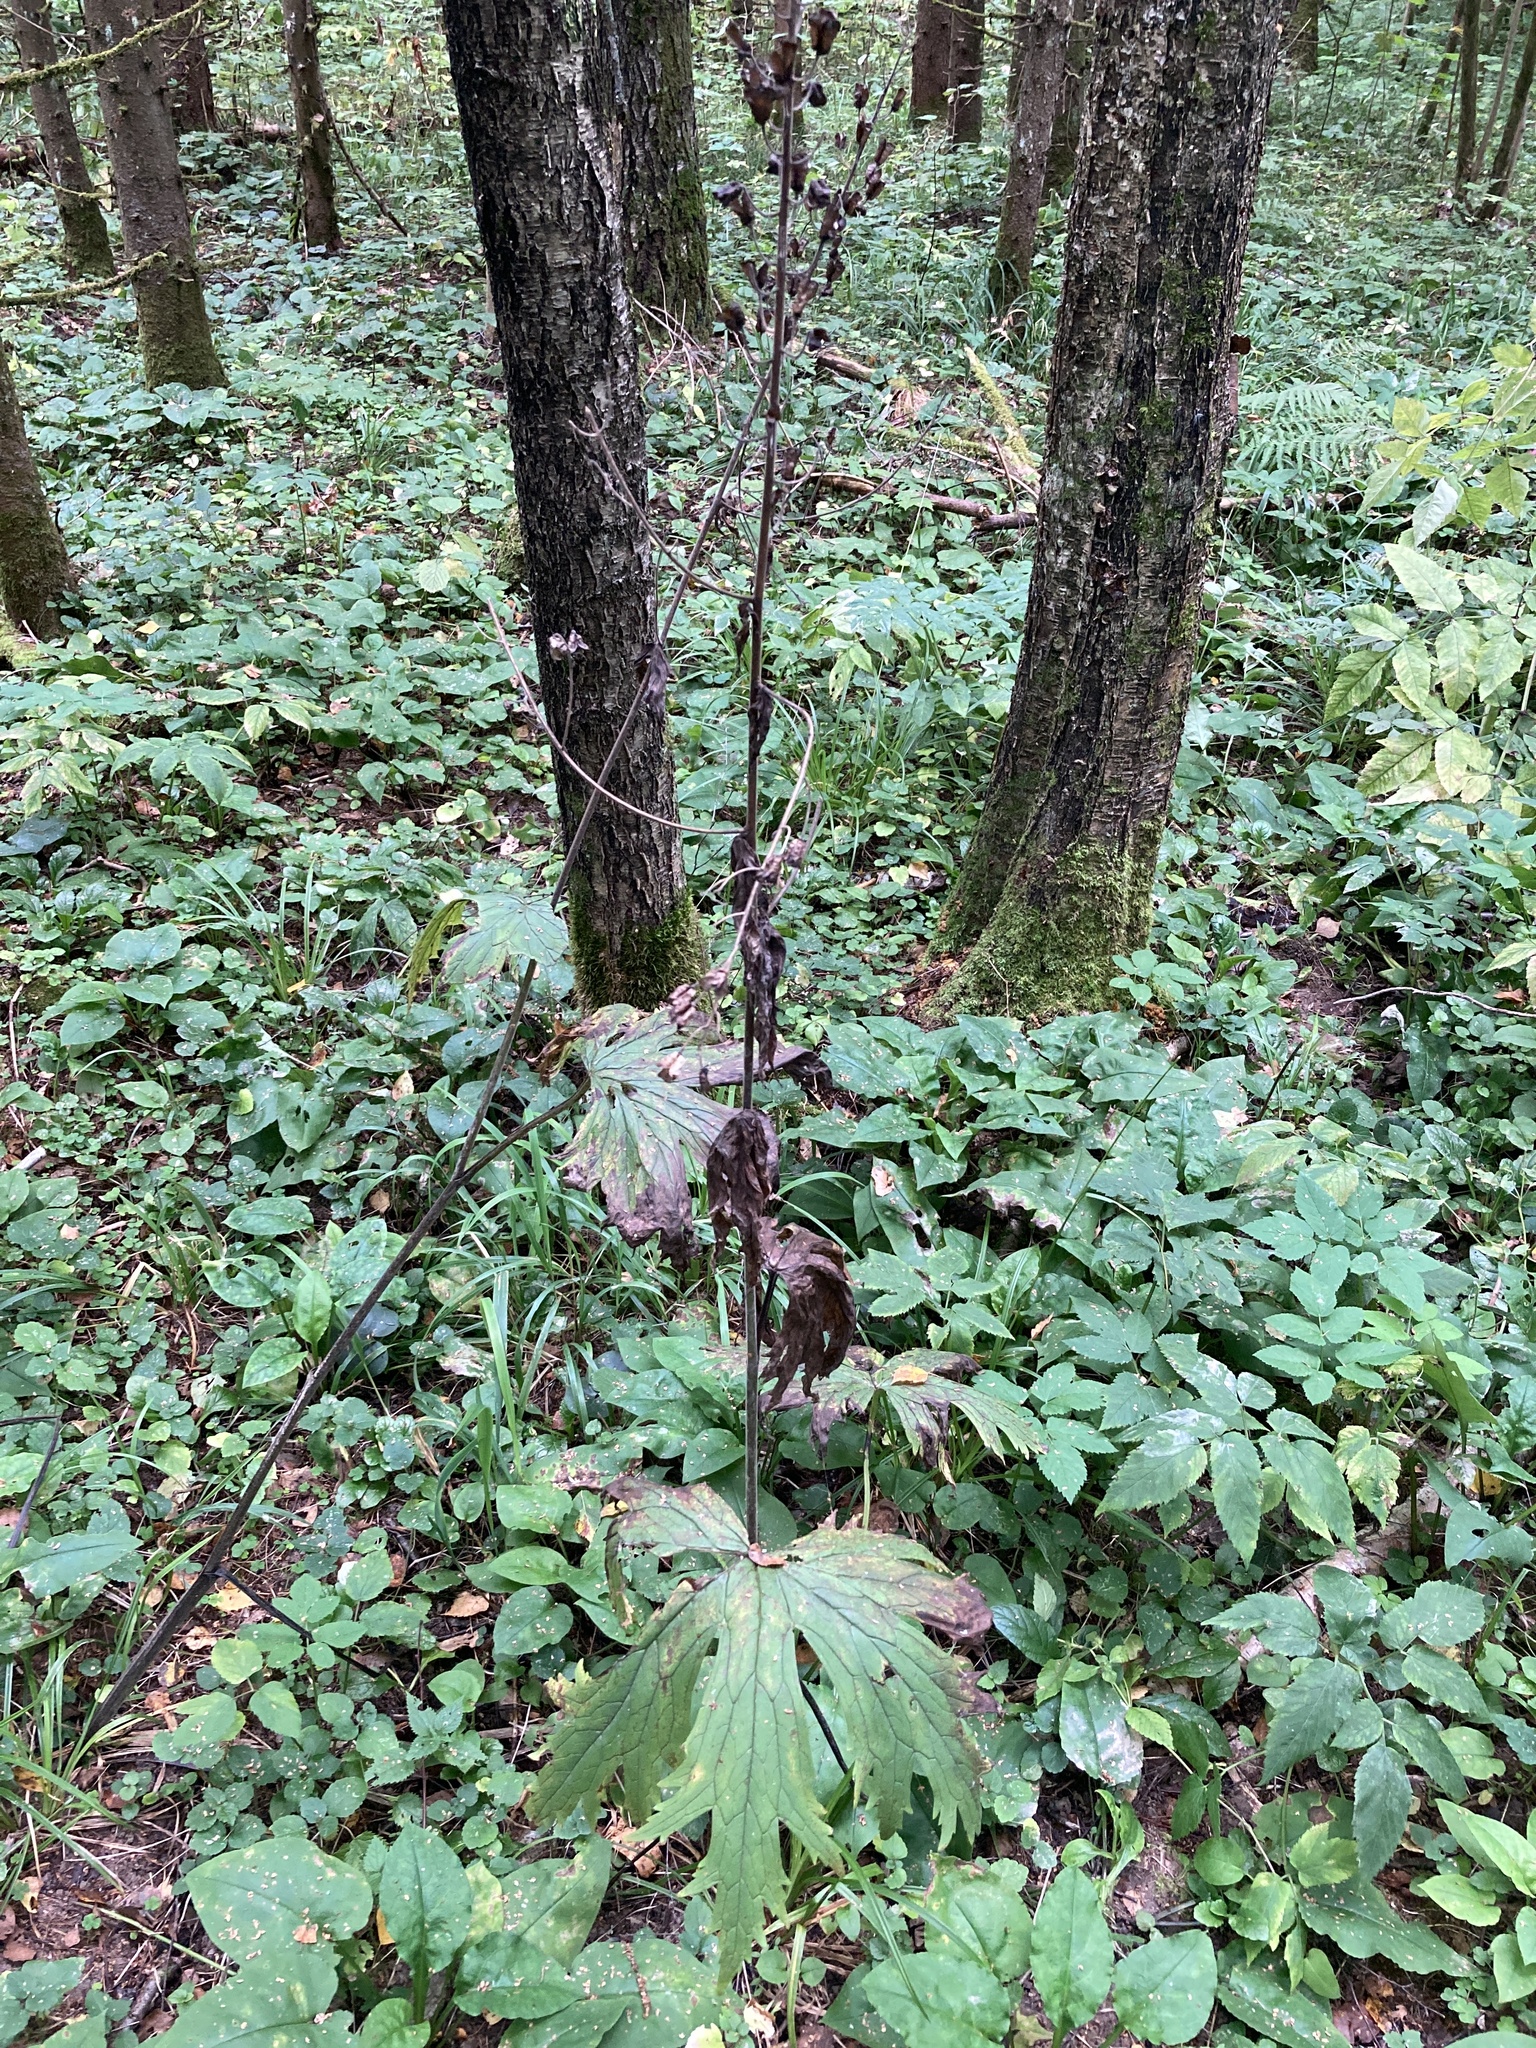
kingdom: Plantae
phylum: Tracheophyta
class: Magnoliopsida
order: Ranunculales
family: Ranunculaceae
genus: Aconitum
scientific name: Aconitum septentrionale
